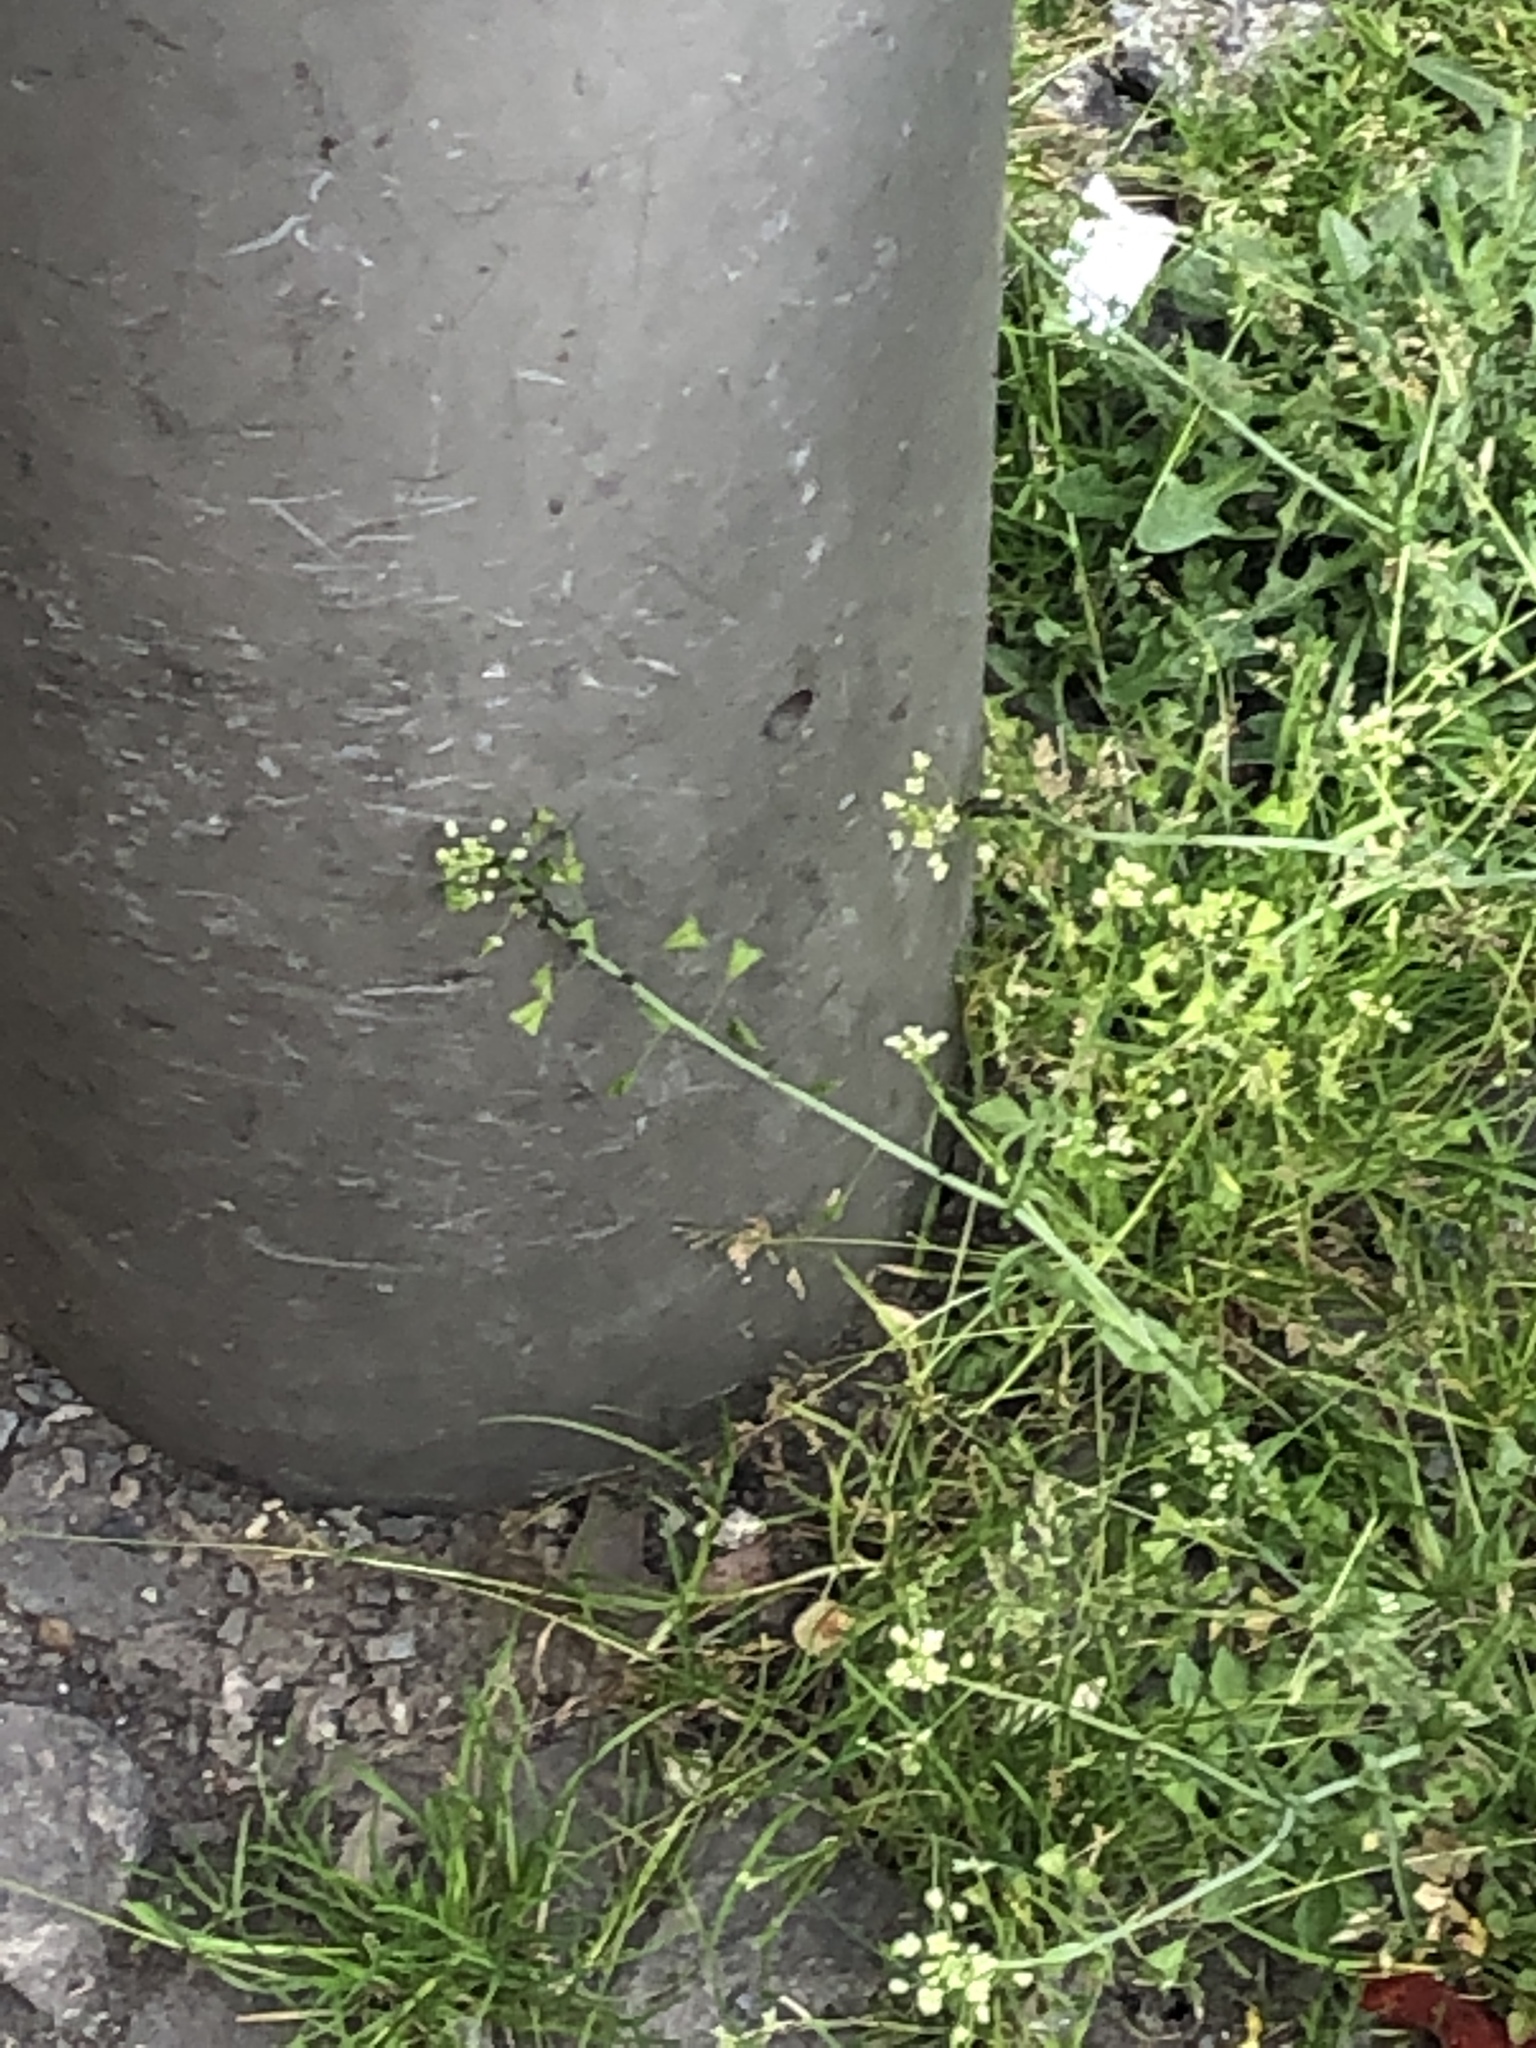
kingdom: Plantae
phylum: Tracheophyta
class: Magnoliopsida
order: Brassicales
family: Brassicaceae
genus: Capsella
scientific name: Capsella bursa-pastoris
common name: Shepherd's purse
